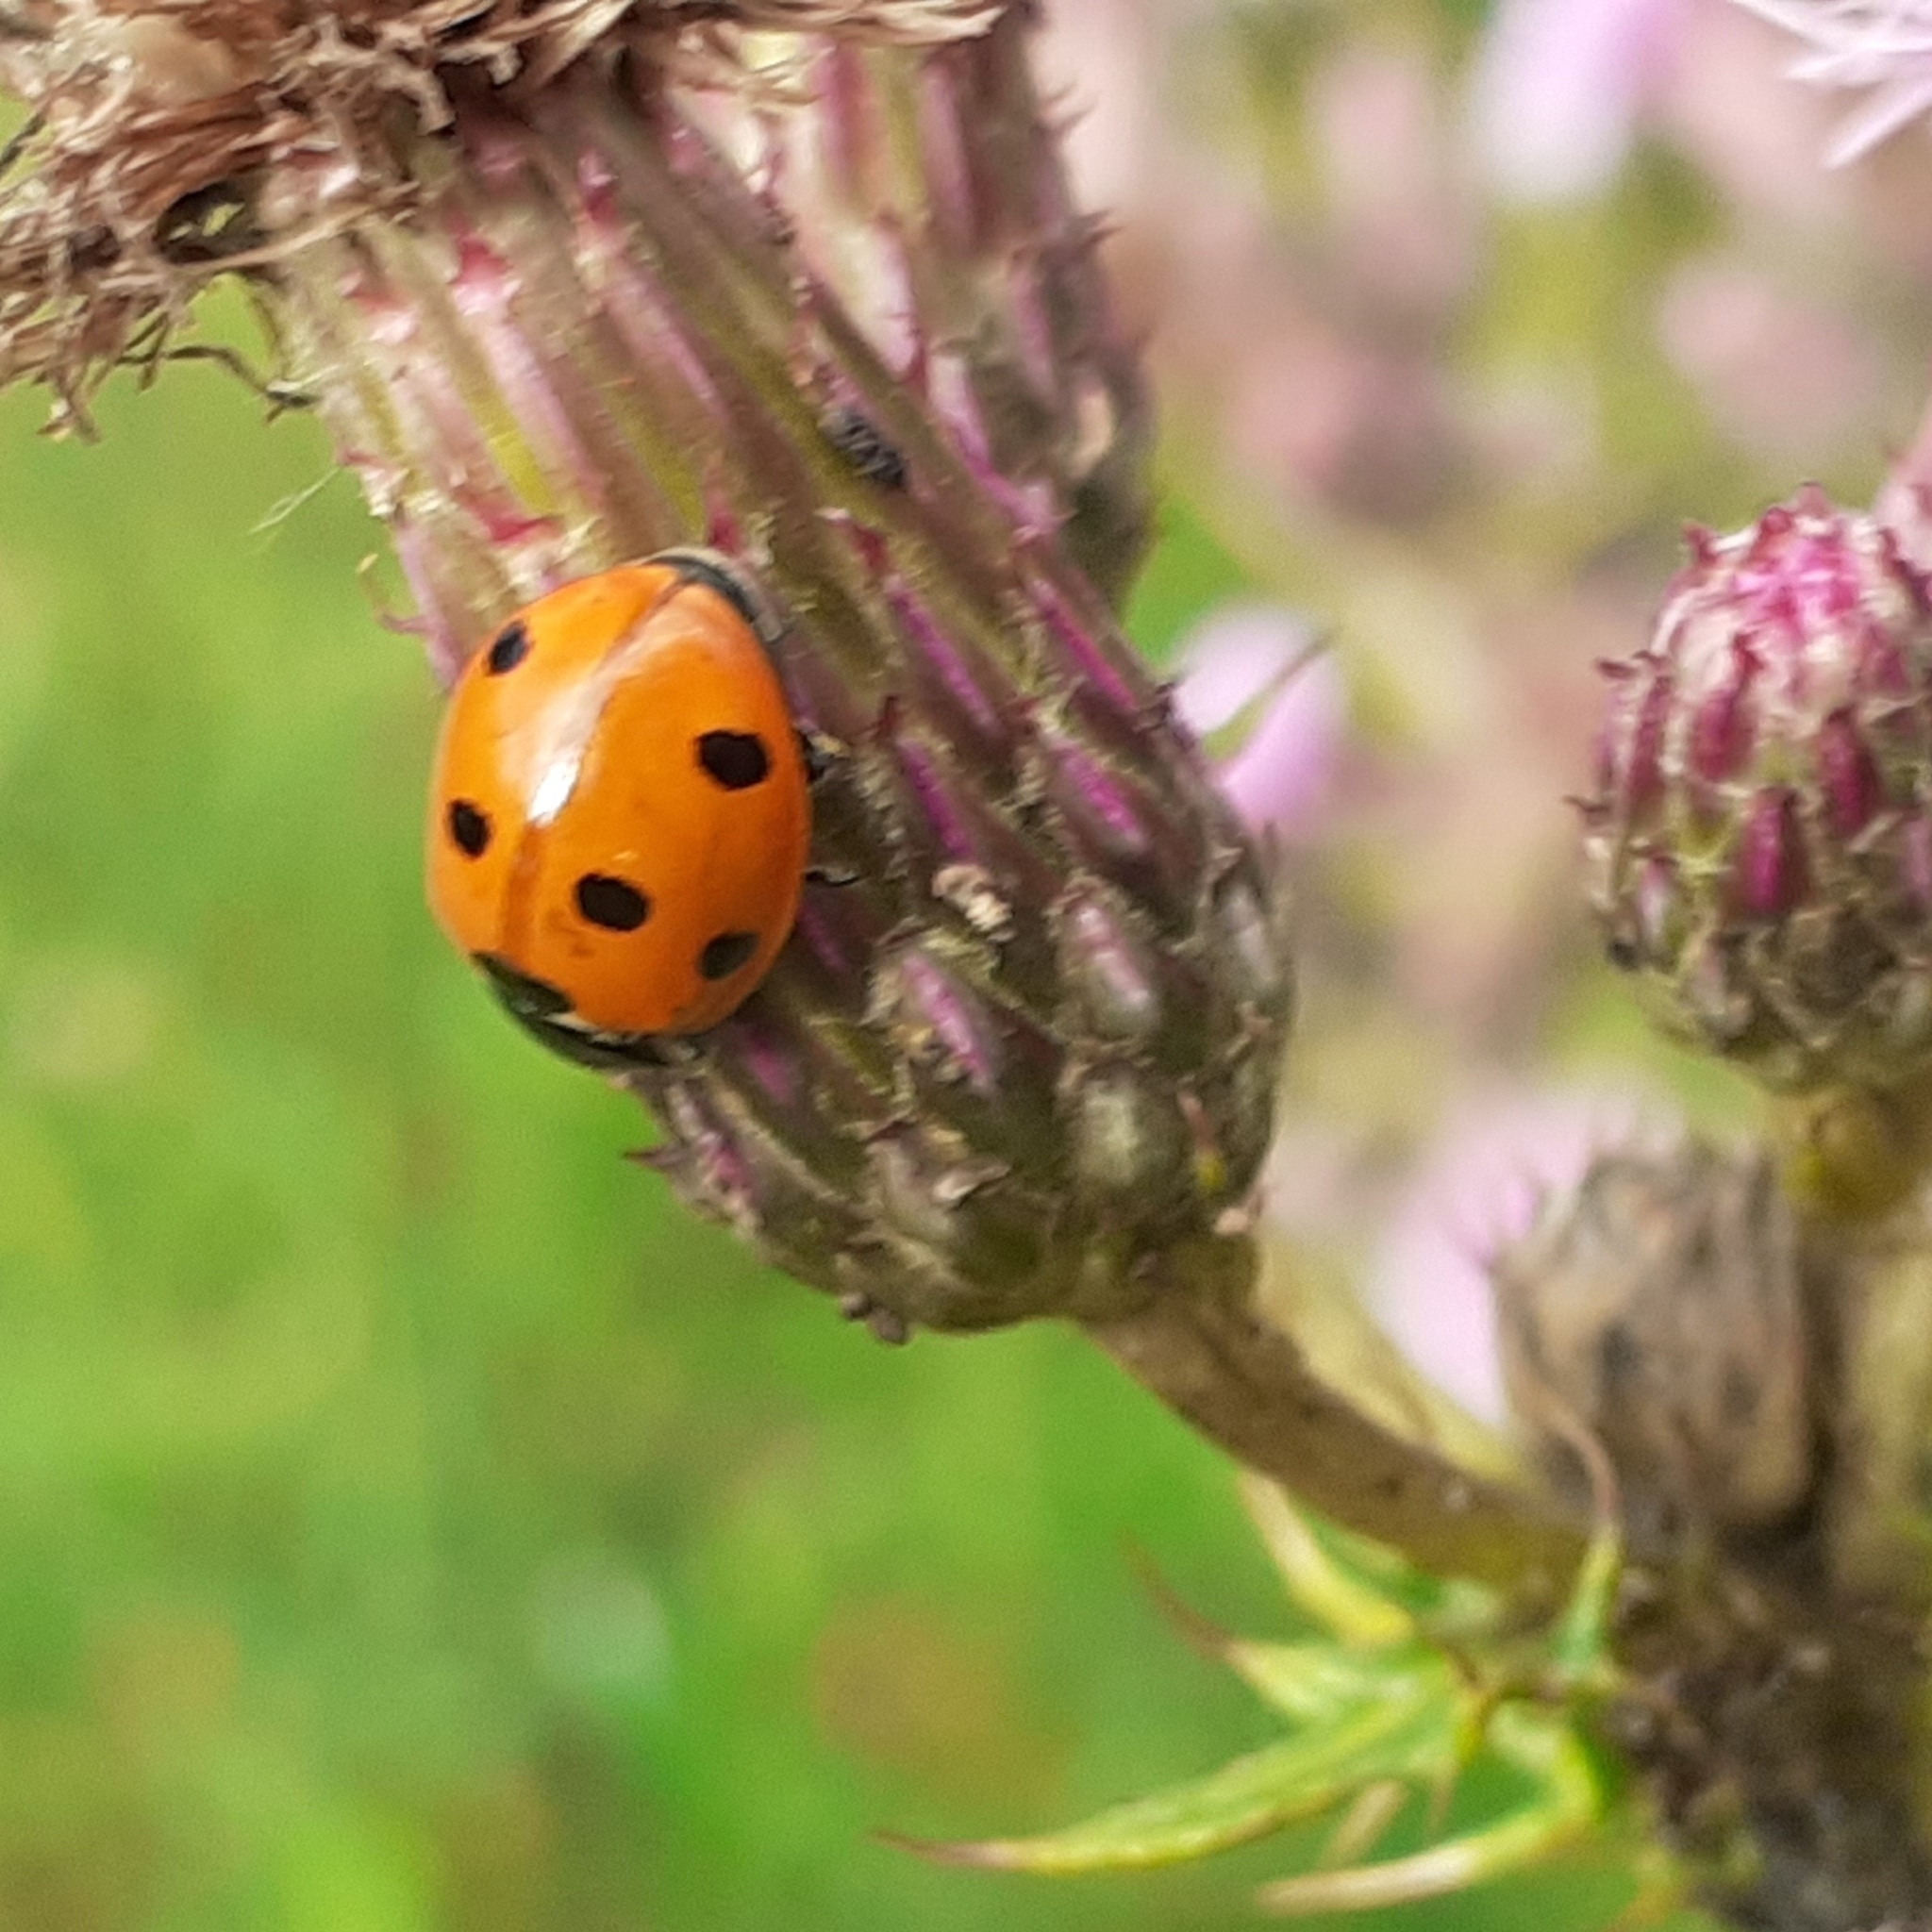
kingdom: Animalia
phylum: Arthropoda
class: Insecta
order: Coleoptera
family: Coccinellidae
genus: Coccinella
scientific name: Coccinella septempunctata
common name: Sevenspotted lady beetle
